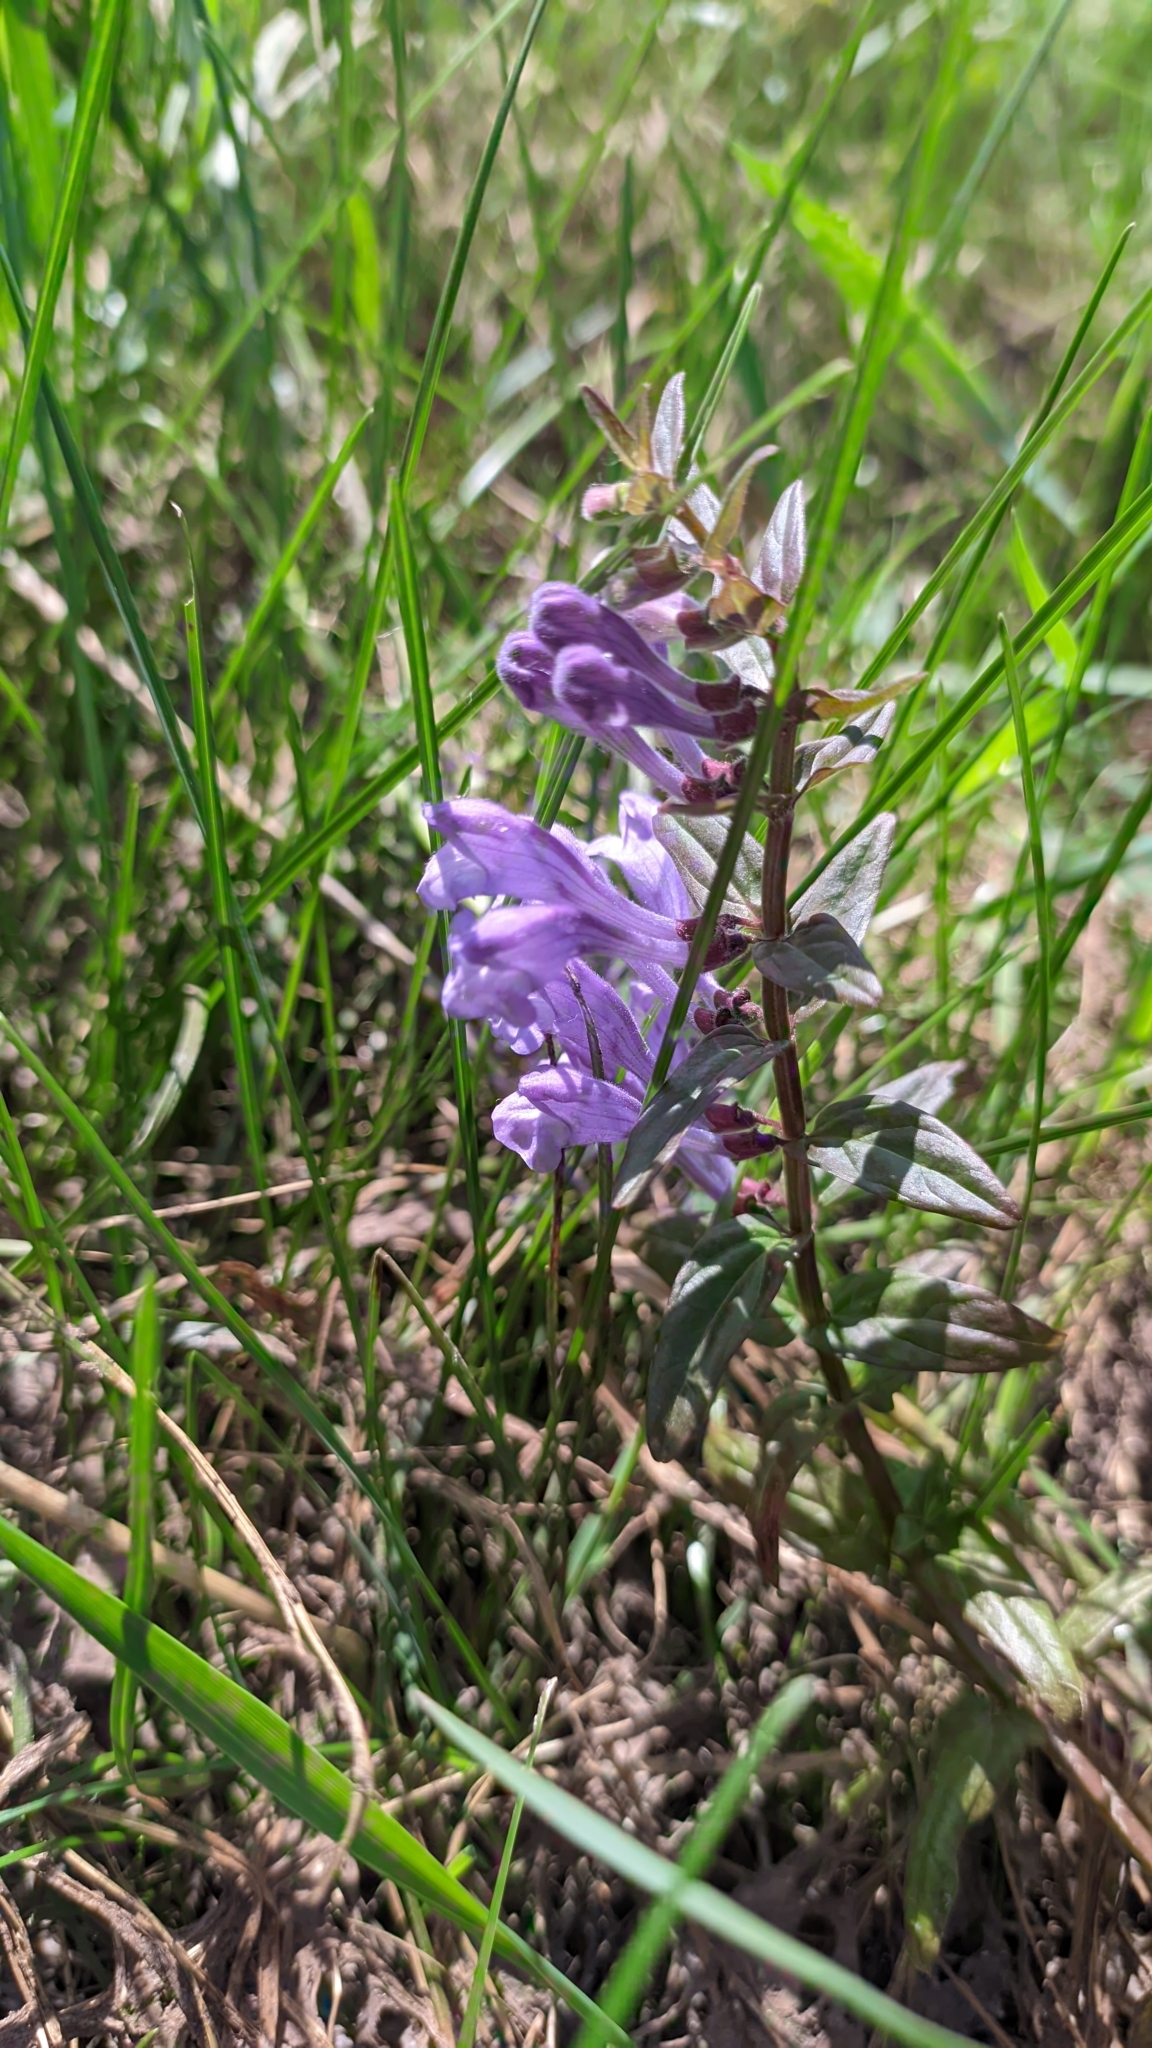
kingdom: Plantae
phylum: Tracheophyta
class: Magnoliopsida
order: Lamiales
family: Lamiaceae
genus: Scutellaria
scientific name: Scutellaria hastifolia
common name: Norfolk skullcap
